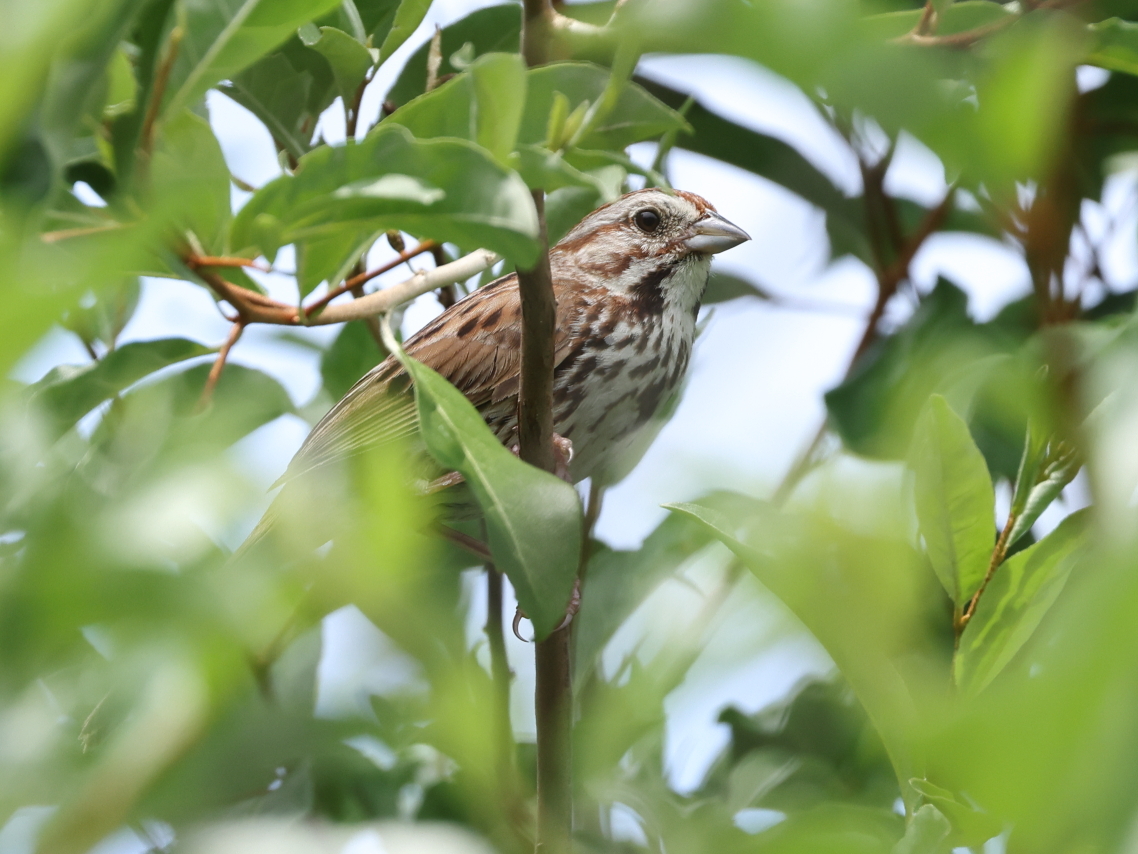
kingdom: Animalia
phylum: Chordata
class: Aves
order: Passeriformes
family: Passerellidae
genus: Melospiza
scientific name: Melospiza melodia
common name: Song sparrow
